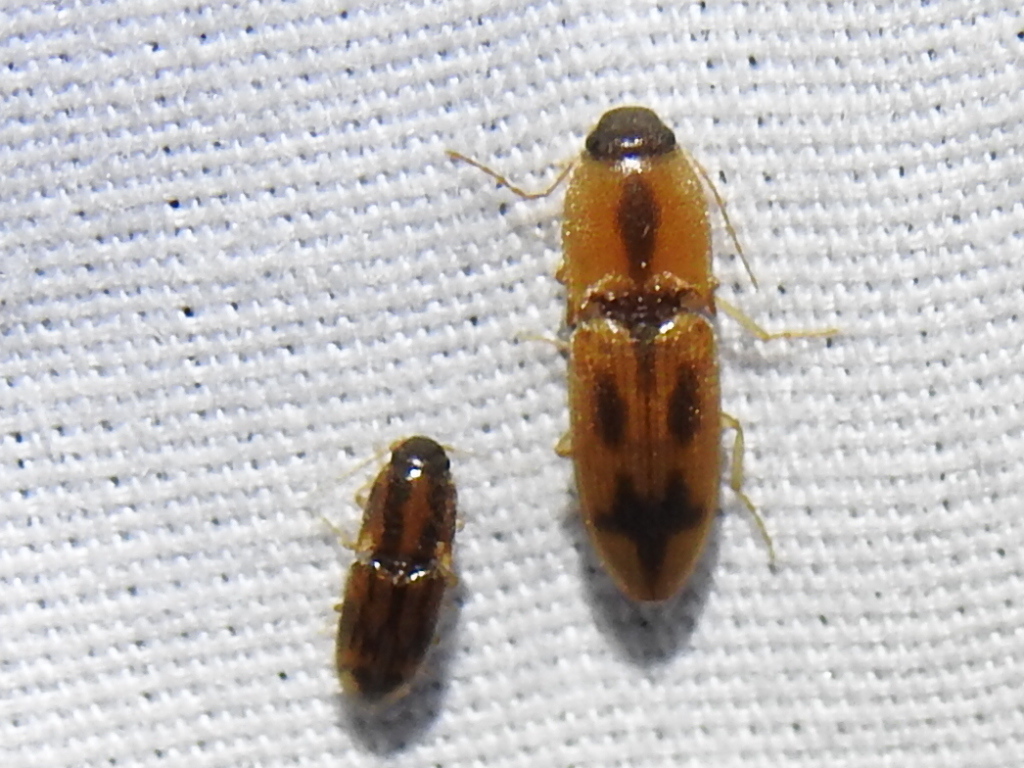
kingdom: Animalia
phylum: Arthropoda
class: Insecta
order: Coleoptera
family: Elateridae
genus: Aeolus
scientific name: Aeolus mellillus
